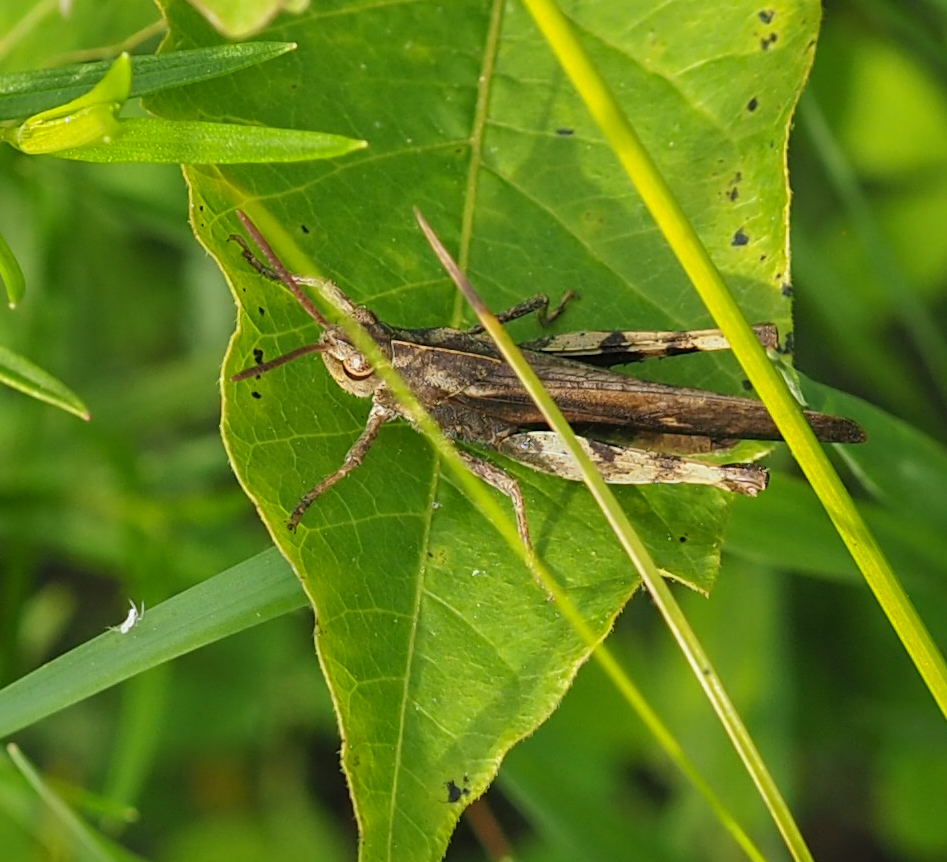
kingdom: Animalia
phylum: Arthropoda
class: Insecta
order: Orthoptera
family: Acrididae
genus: Chortophaga
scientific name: Chortophaga viridifasciata
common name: Green-striped grasshopper
